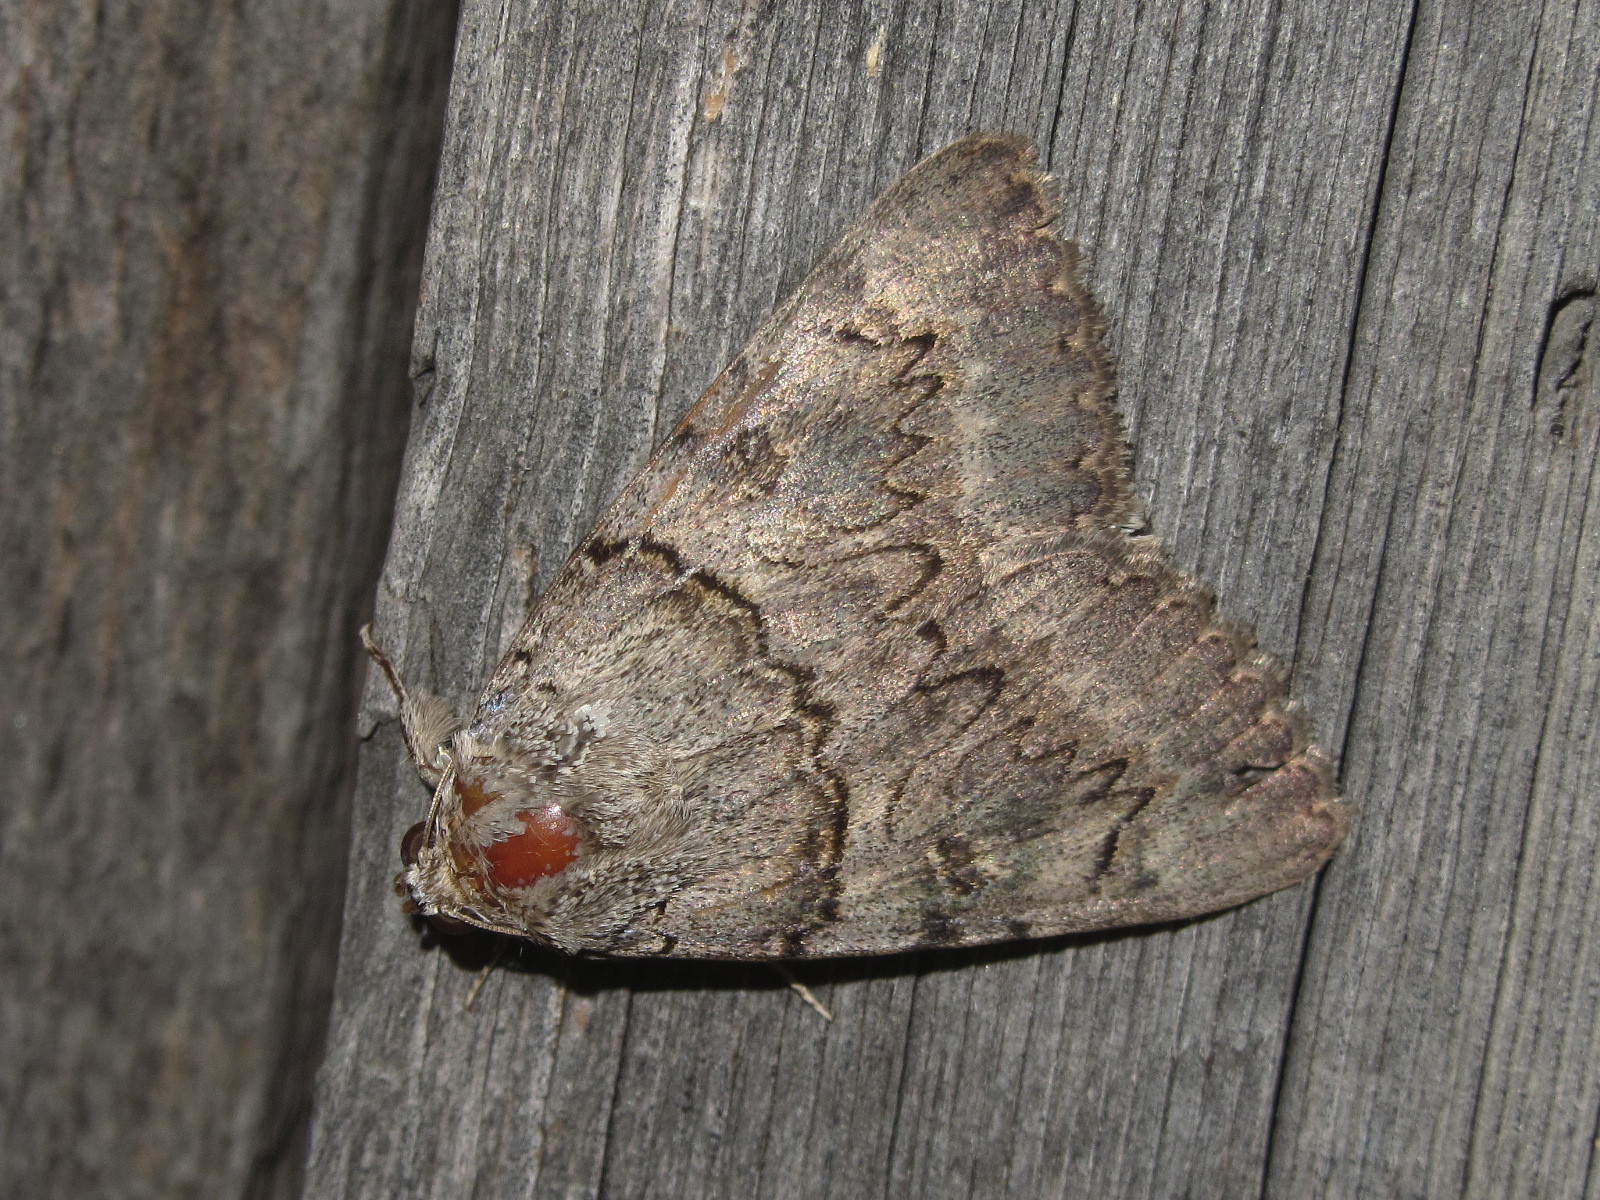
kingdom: Animalia
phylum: Arthropoda
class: Insecta
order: Lepidoptera
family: Erebidae
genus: Catocala
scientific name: Catocala neonympha
